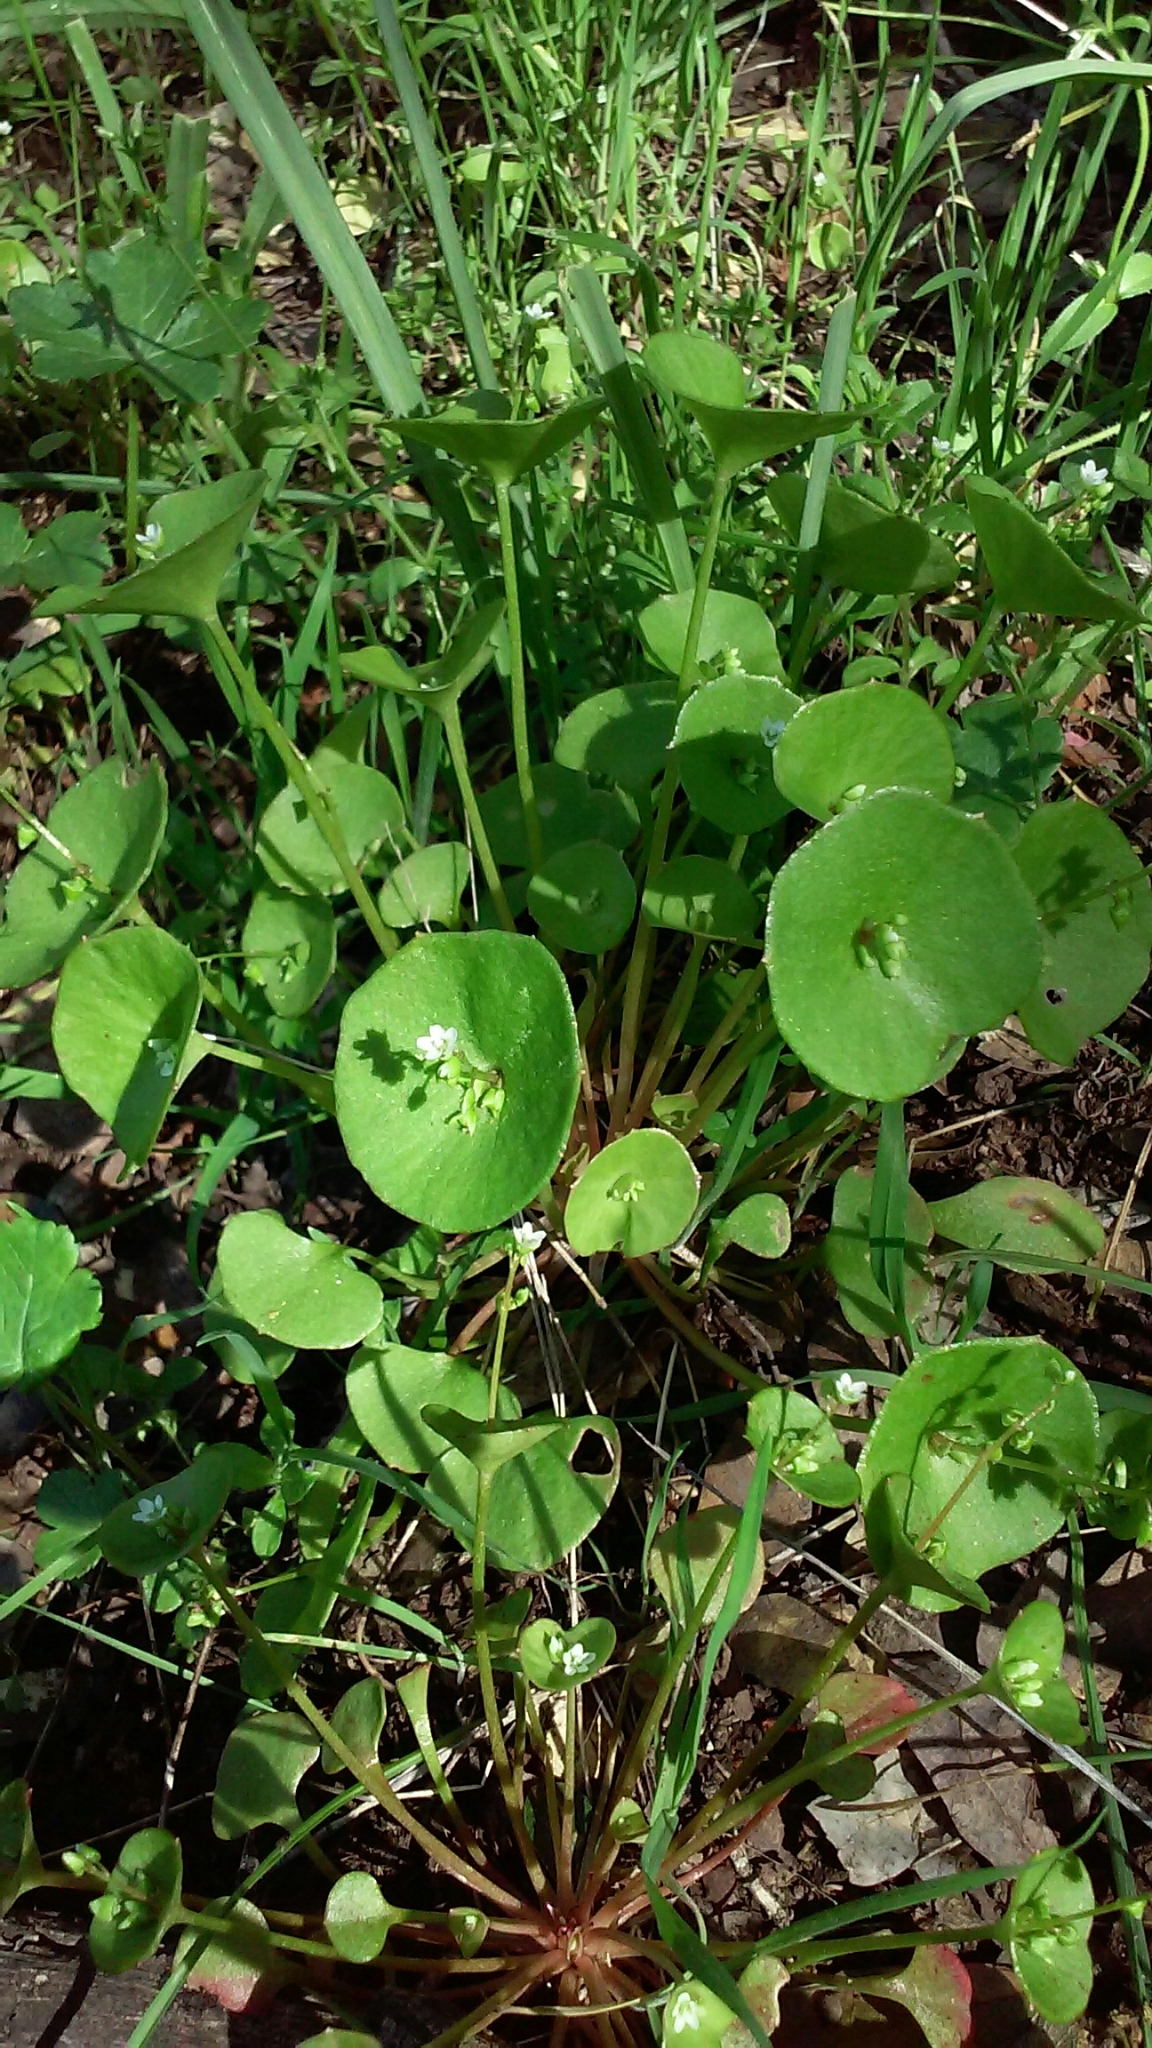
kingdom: Plantae
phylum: Tracheophyta
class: Magnoliopsida
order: Caryophyllales
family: Montiaceae
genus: Claytonia
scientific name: Claytonia perfoliata
